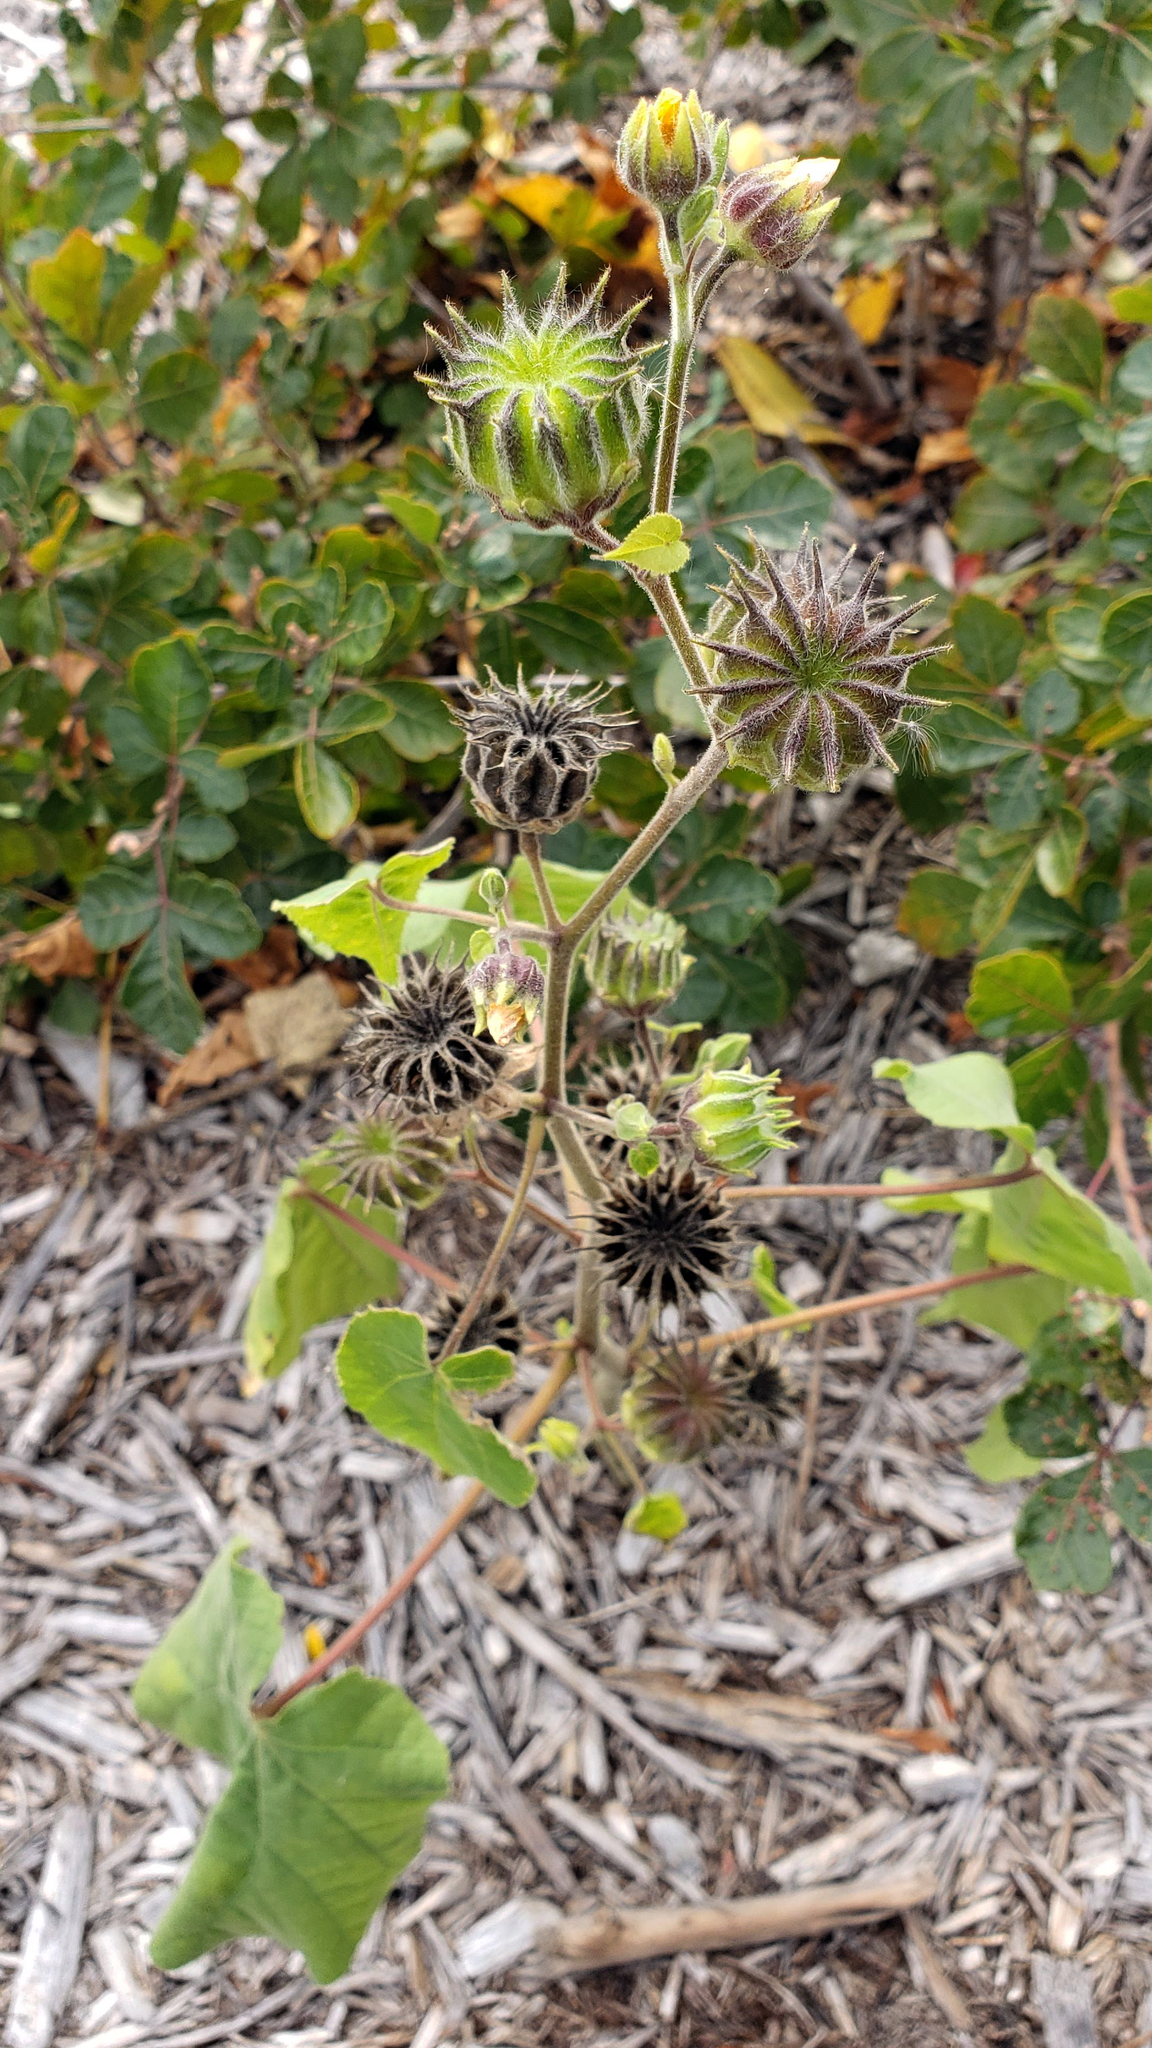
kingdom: Plantae
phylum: Tracheophyta
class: Magnoliopsida
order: Malvales
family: Malvaceae
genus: Abutilon
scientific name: Abutilon theophrasti
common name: Velvetleaf
